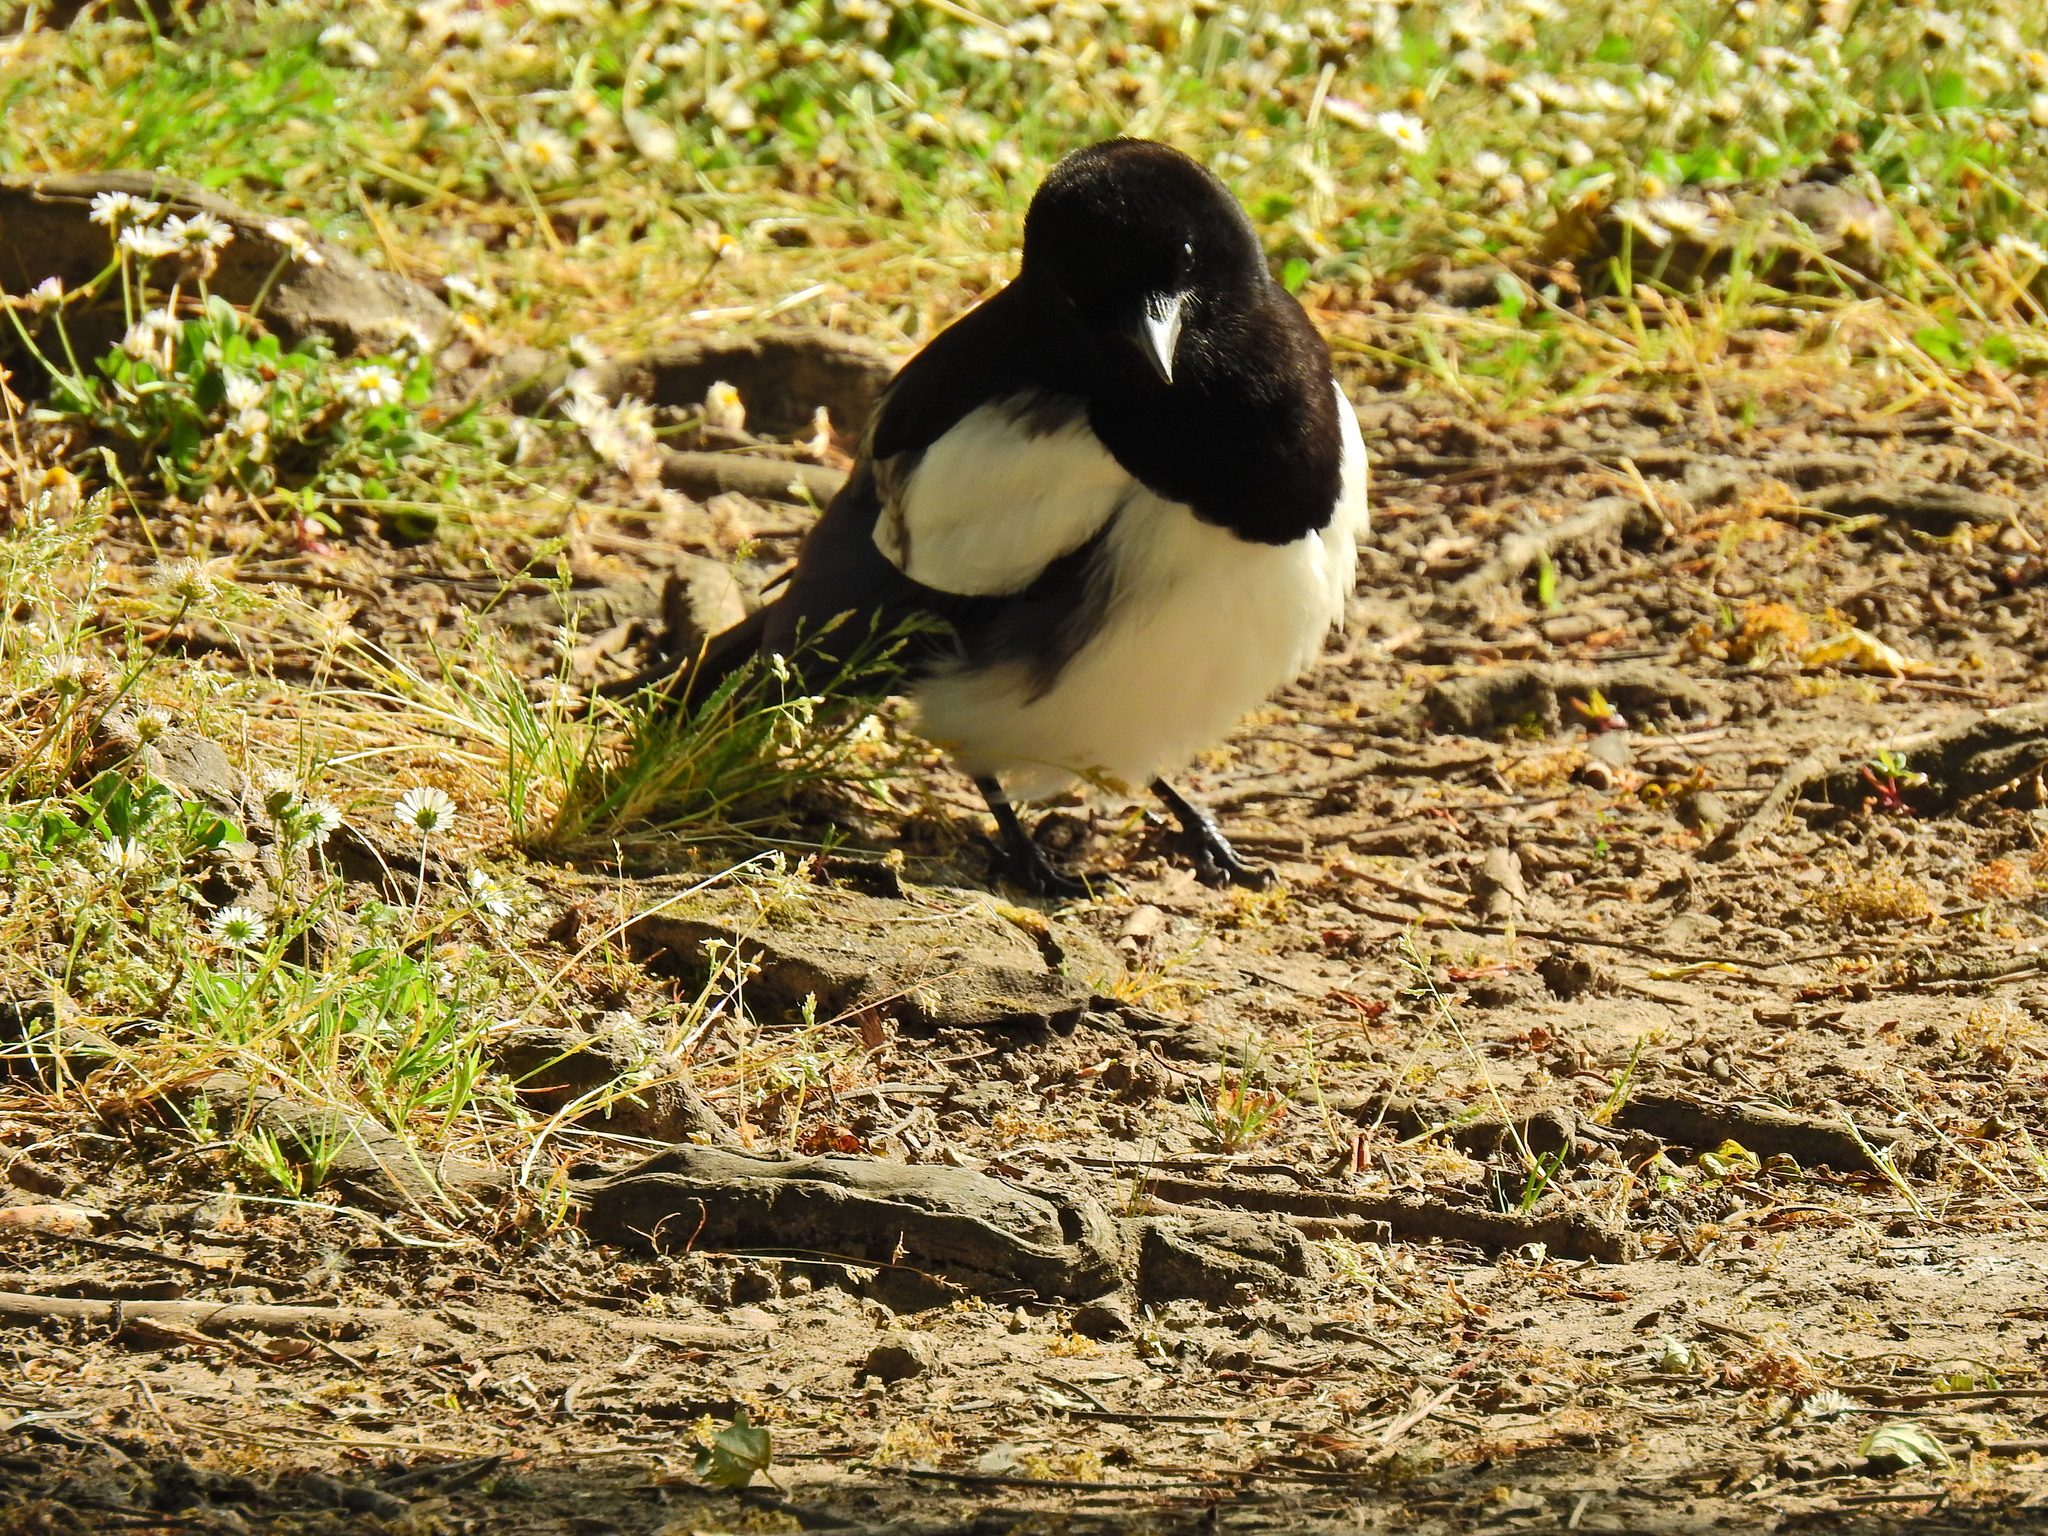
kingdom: Animalia
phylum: Chordata
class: Aves
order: Passeriformes
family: Corvidae
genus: Pica
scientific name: Pica pica
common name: Eurasian magpie
